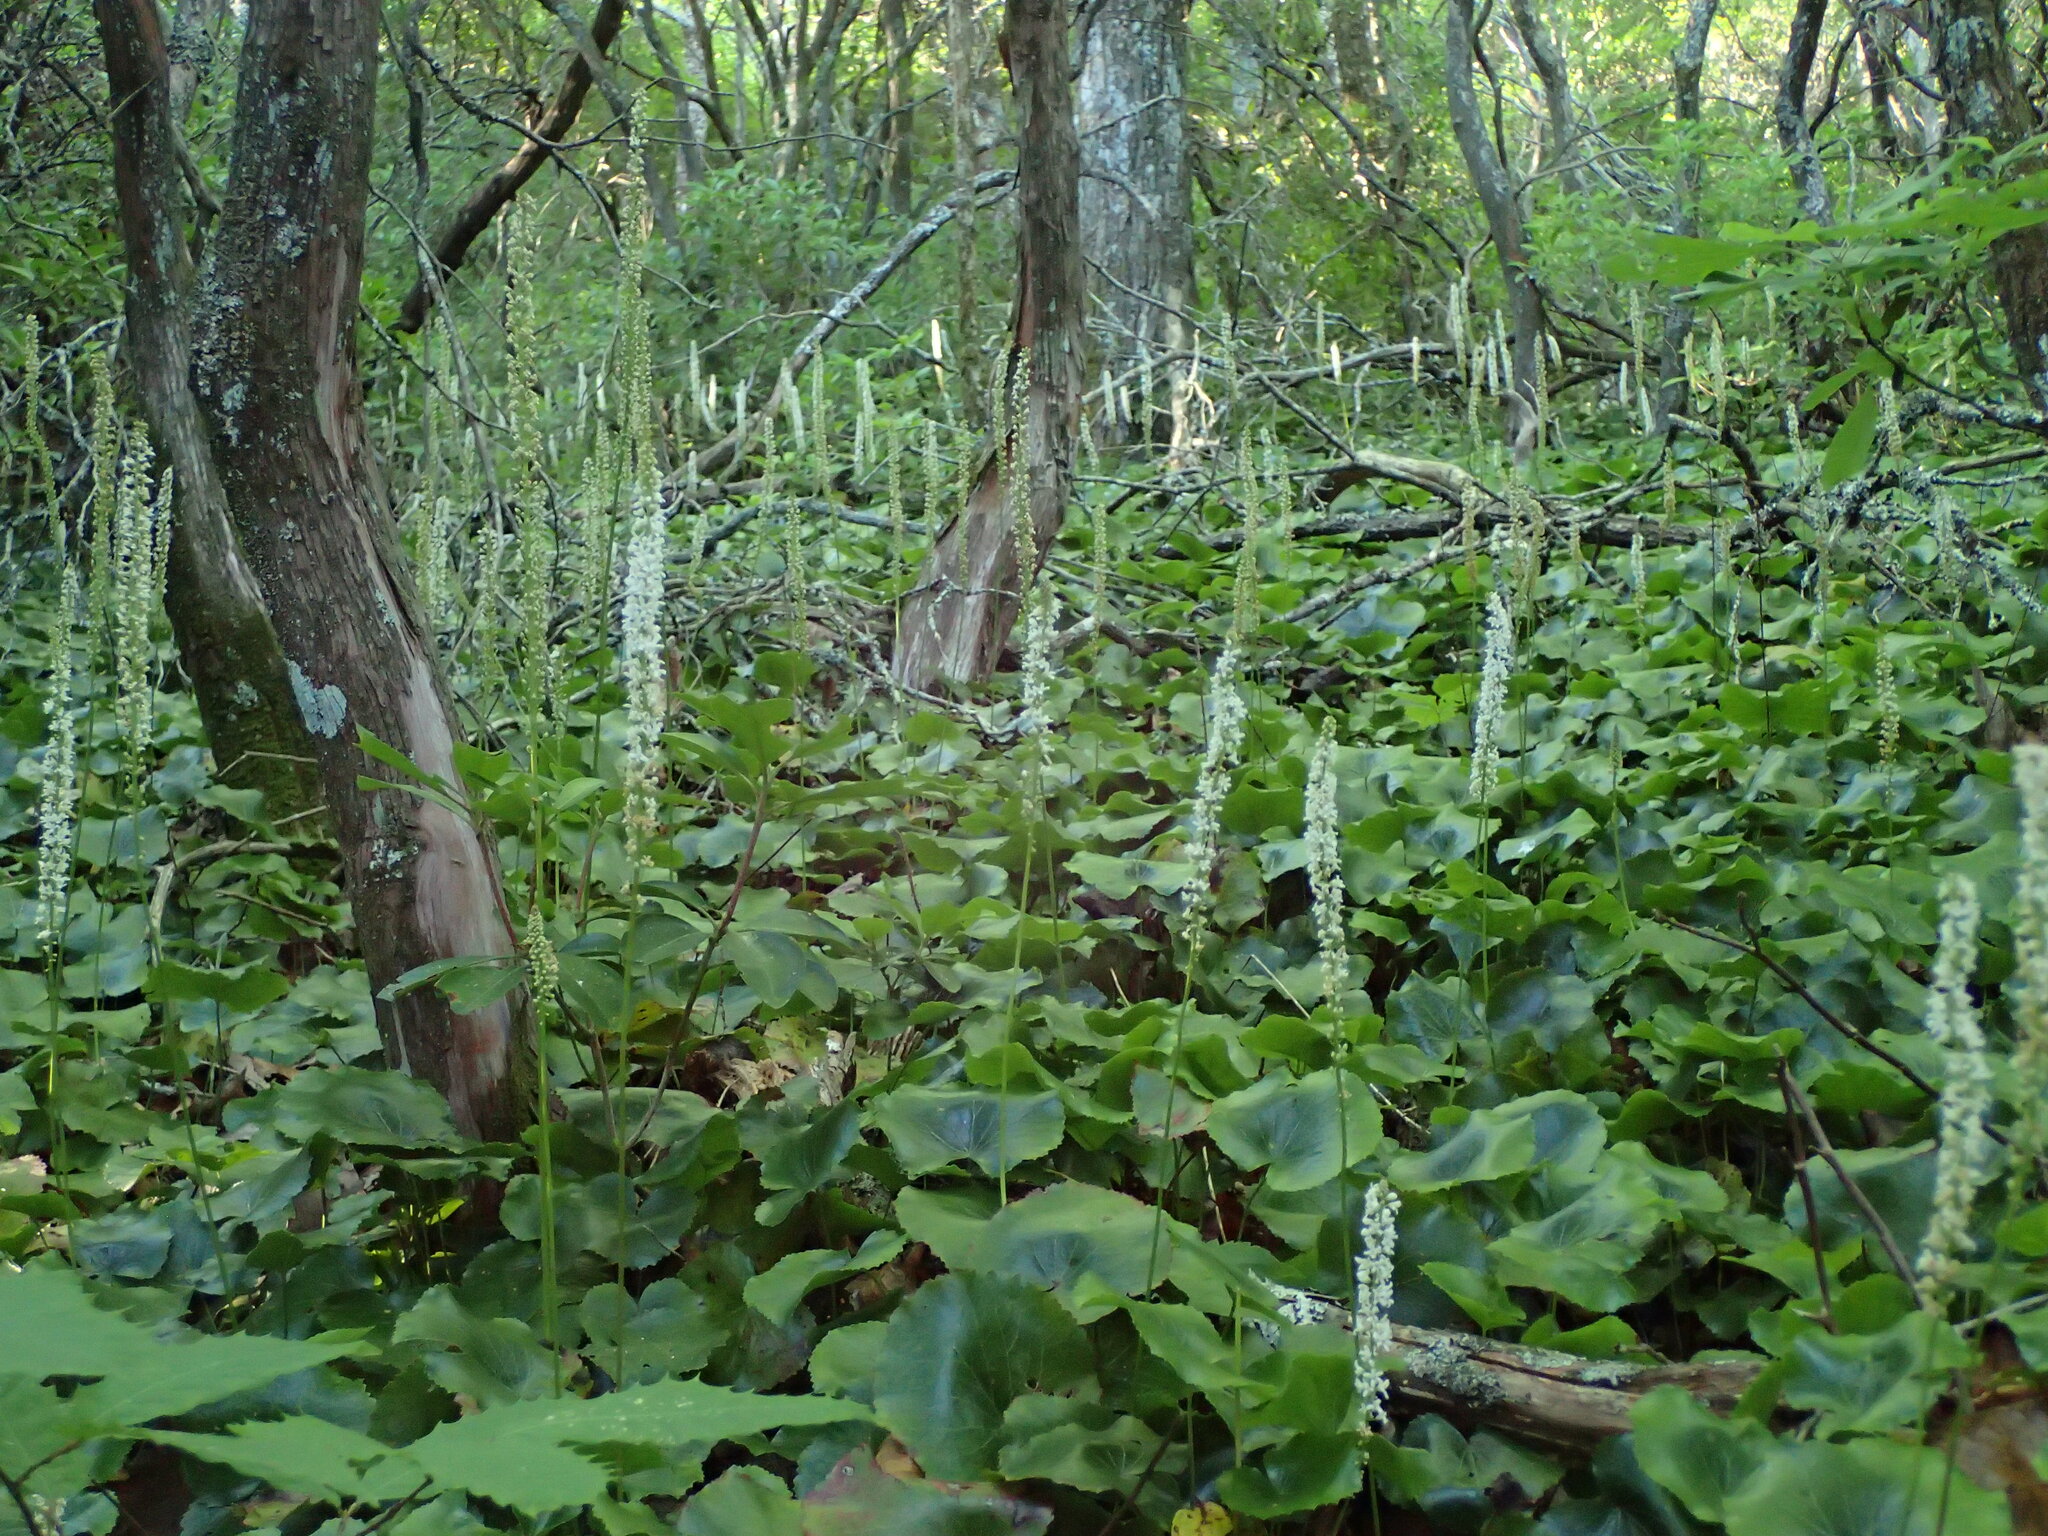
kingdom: Plantae
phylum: Tracheophyta
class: Magnoliopsida
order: Ericales
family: Diapensiaceae
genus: Galax
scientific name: Galax urceolata
